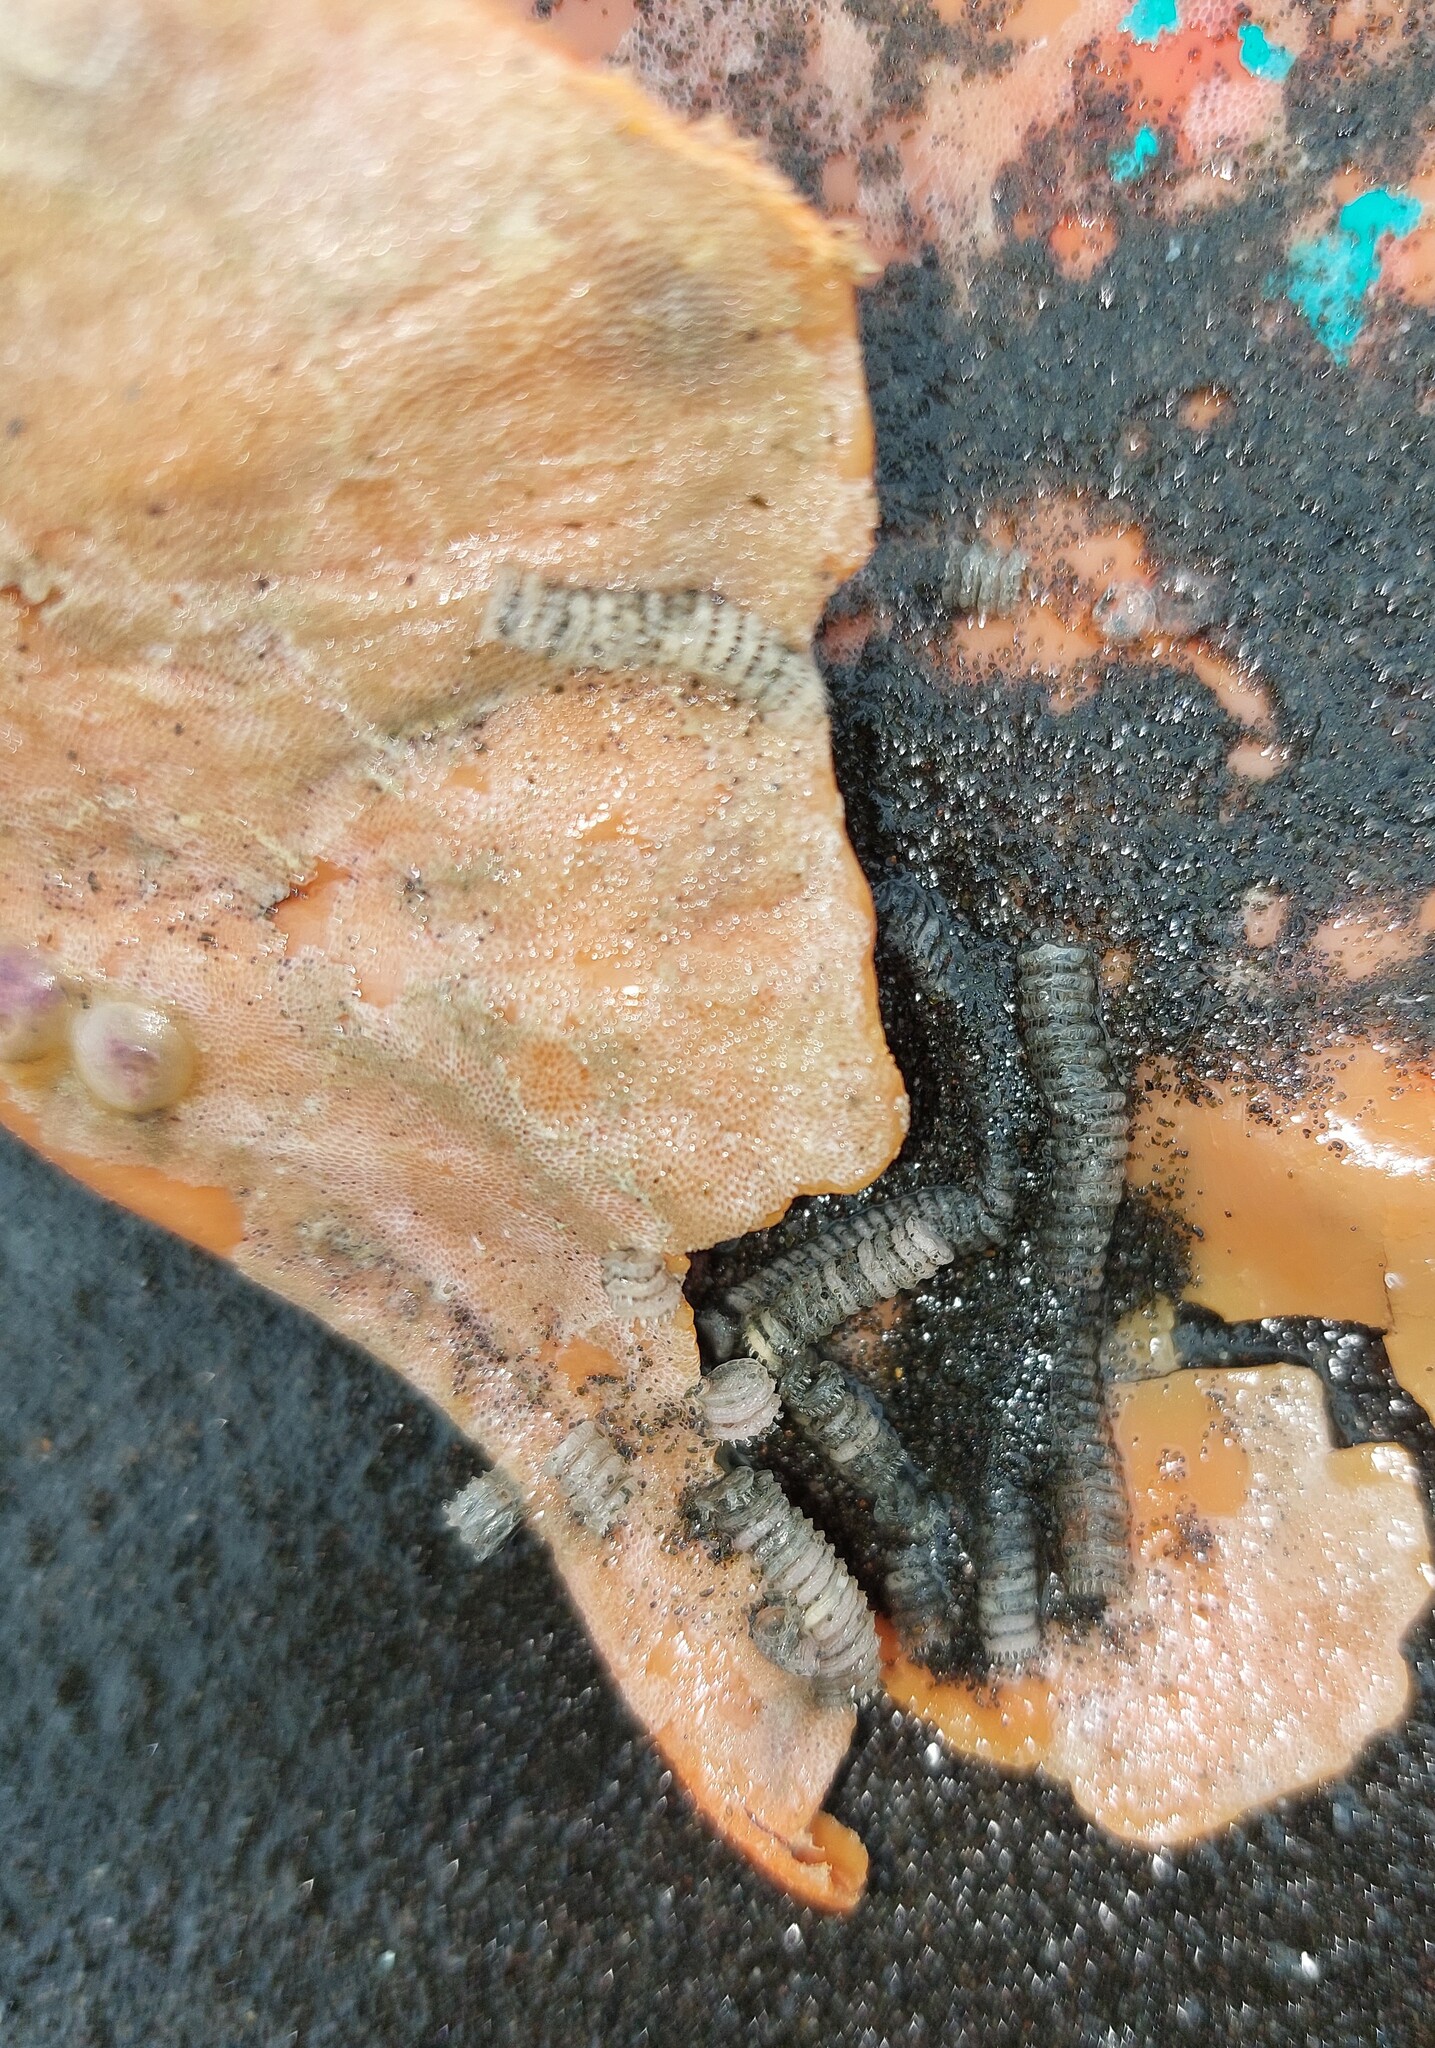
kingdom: Animalia
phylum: Mollusca
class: Gastropoda
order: Neogastropoda
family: Muricidae
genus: Poirieria
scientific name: Poirieria zelandica
